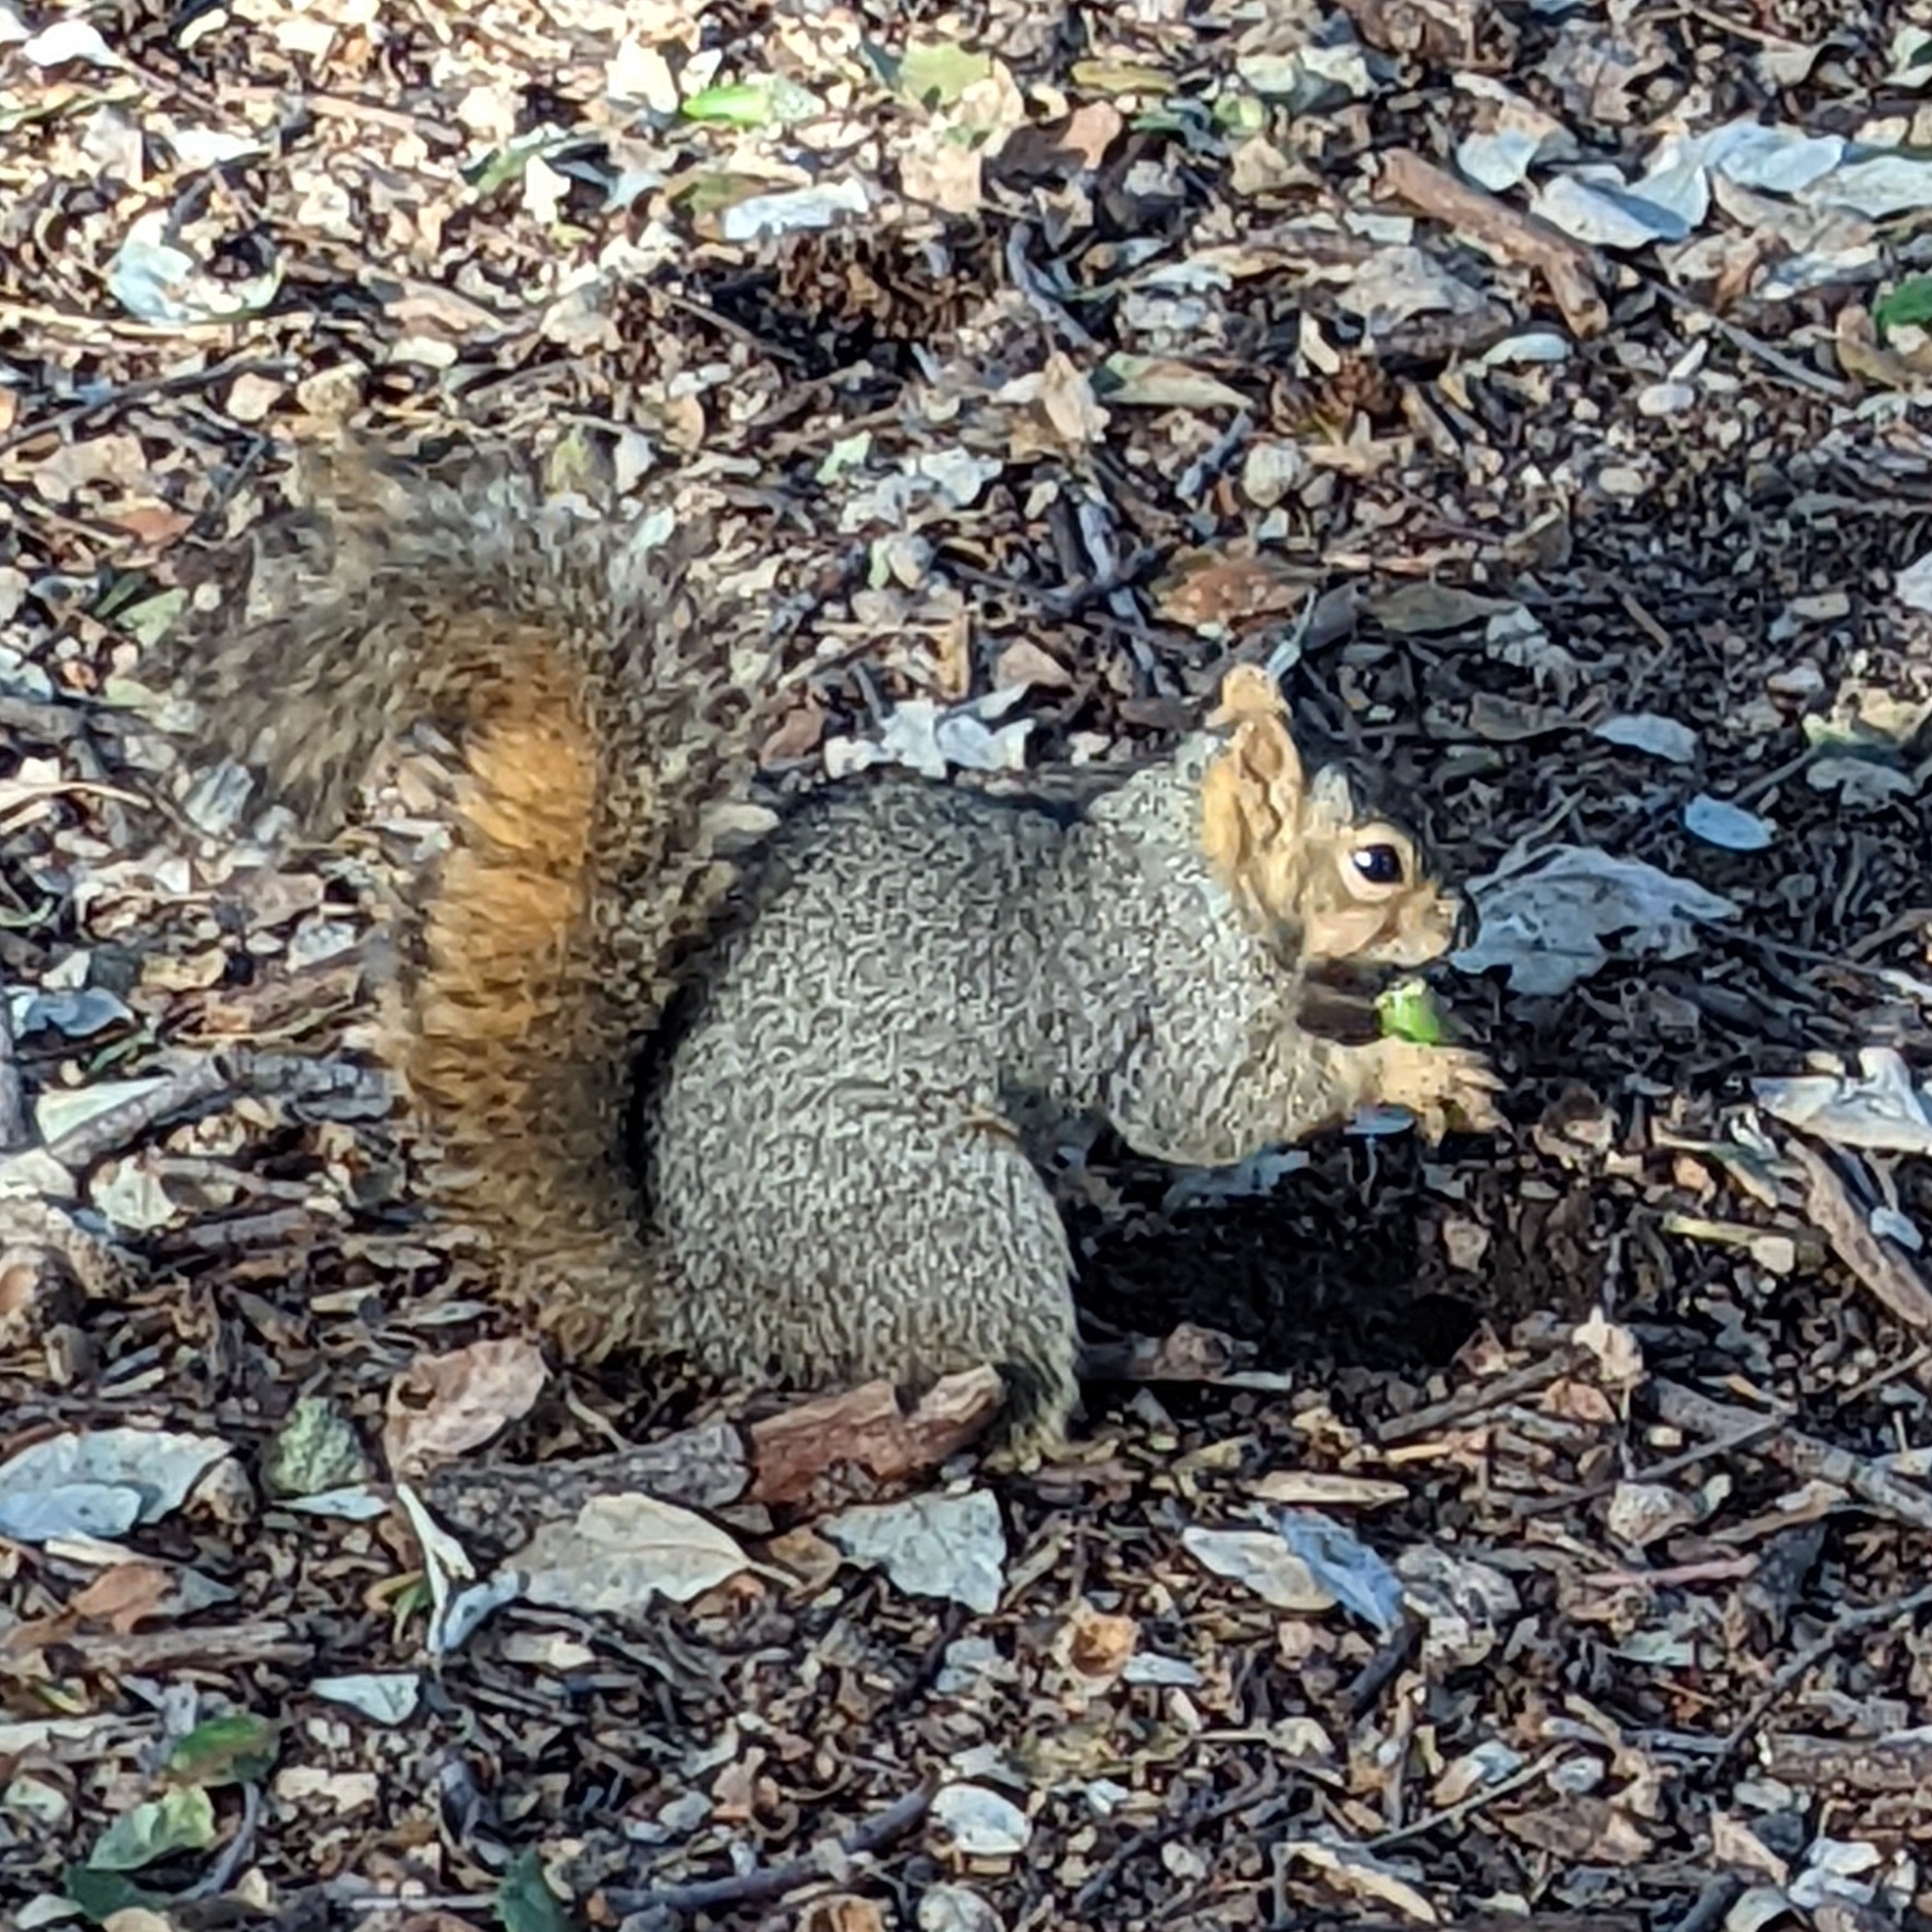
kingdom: Animalia
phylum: Chordata
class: Mammalia
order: Rodentia
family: Sciuridae
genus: Sciurus
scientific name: Sciurus niger
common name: Fox squirrel
